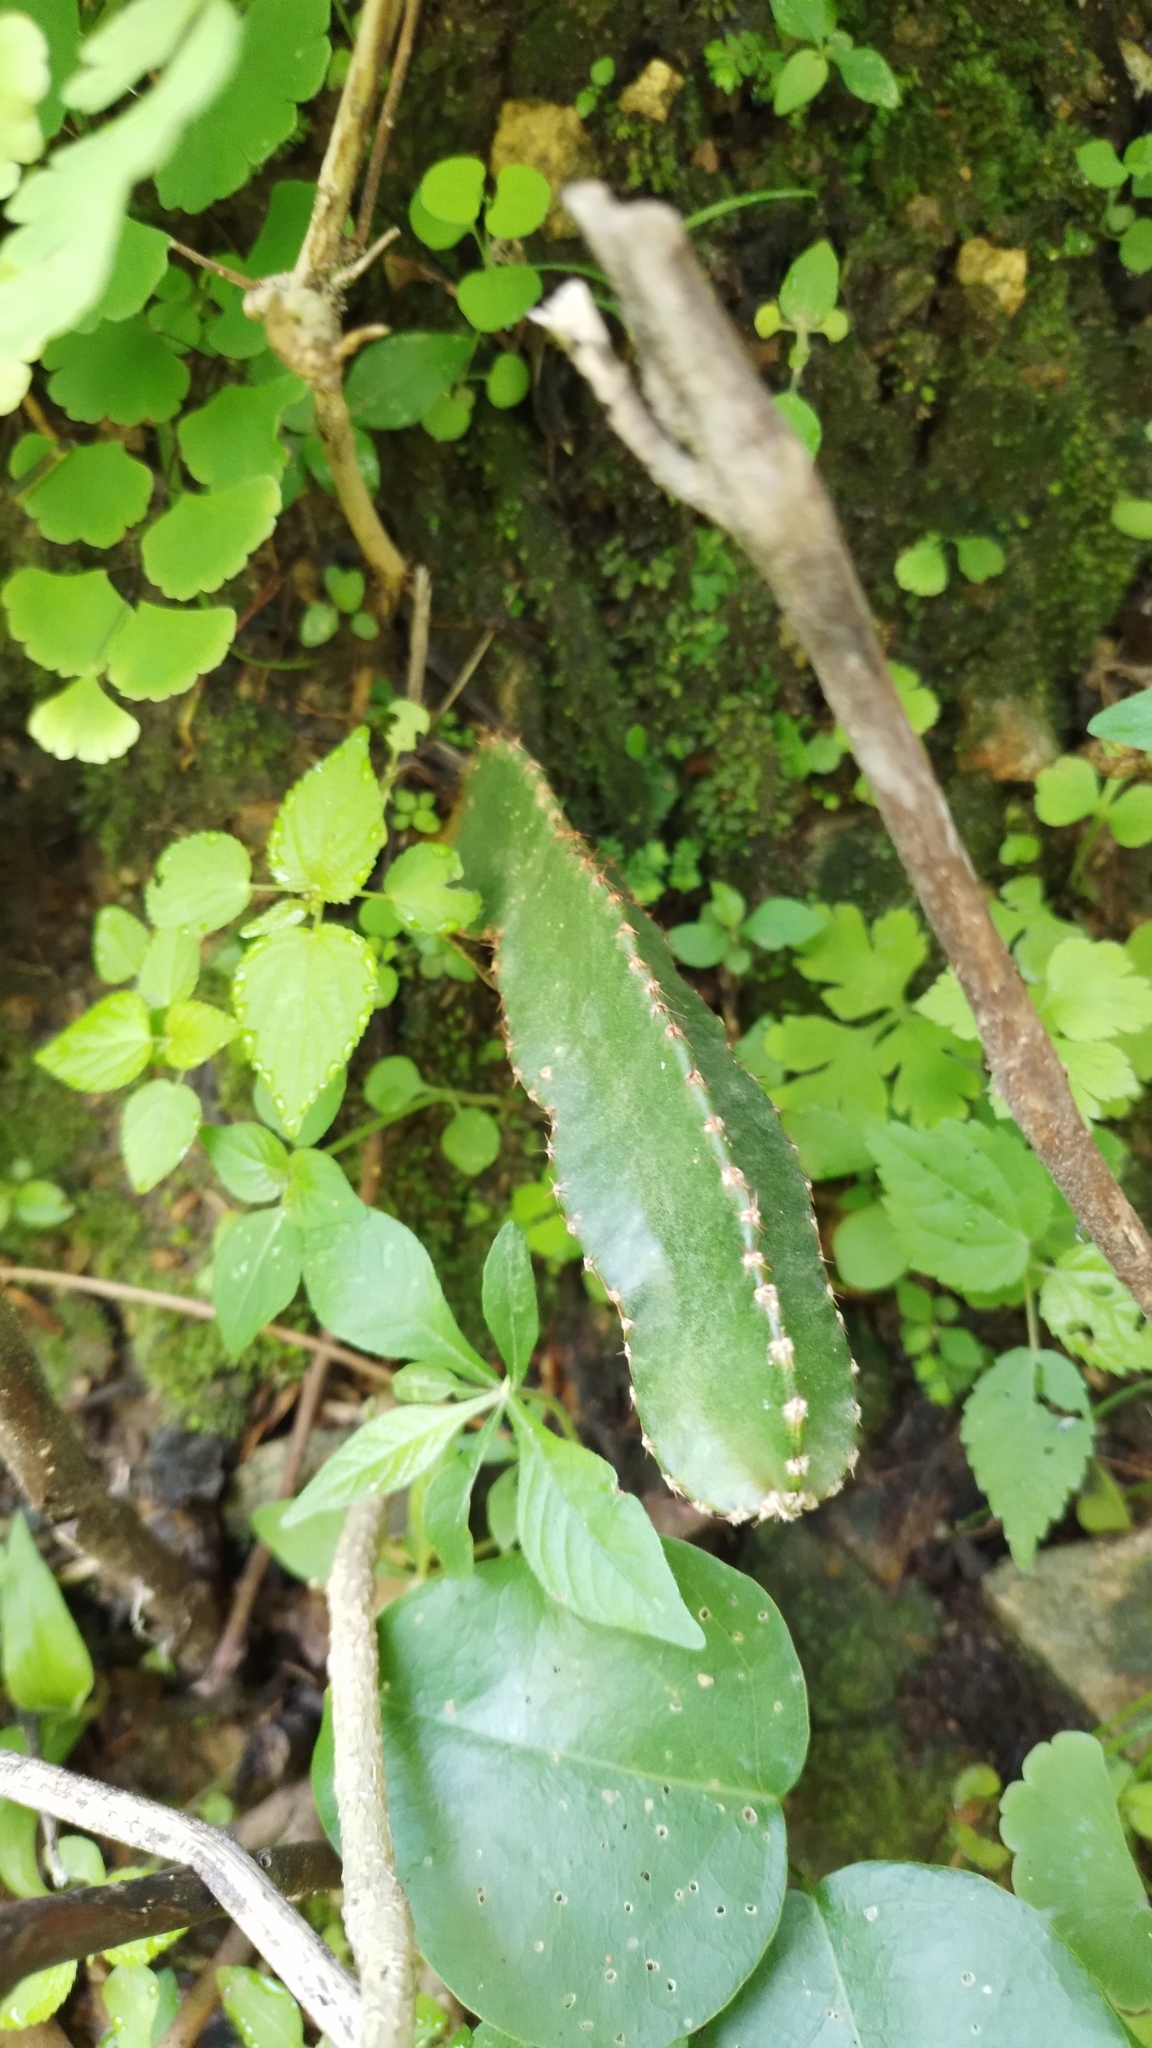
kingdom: Plantae
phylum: Tracheophyta
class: Magnoliopsida
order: Caryophyllales
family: Cactaceae
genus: Selenicereus
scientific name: Selenicereus ocamponis
